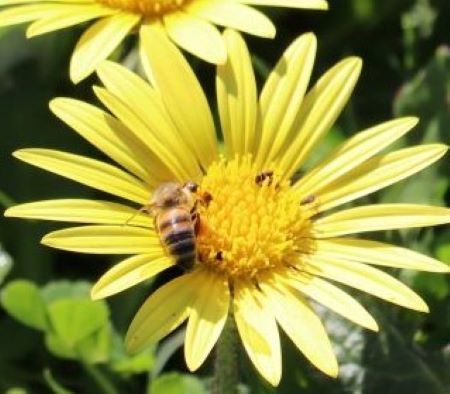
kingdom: Animalia
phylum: Arthropoda
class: Insecta
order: Hymenoptera
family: Apidae
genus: Apis
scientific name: Apis mellifera
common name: Honey bee
